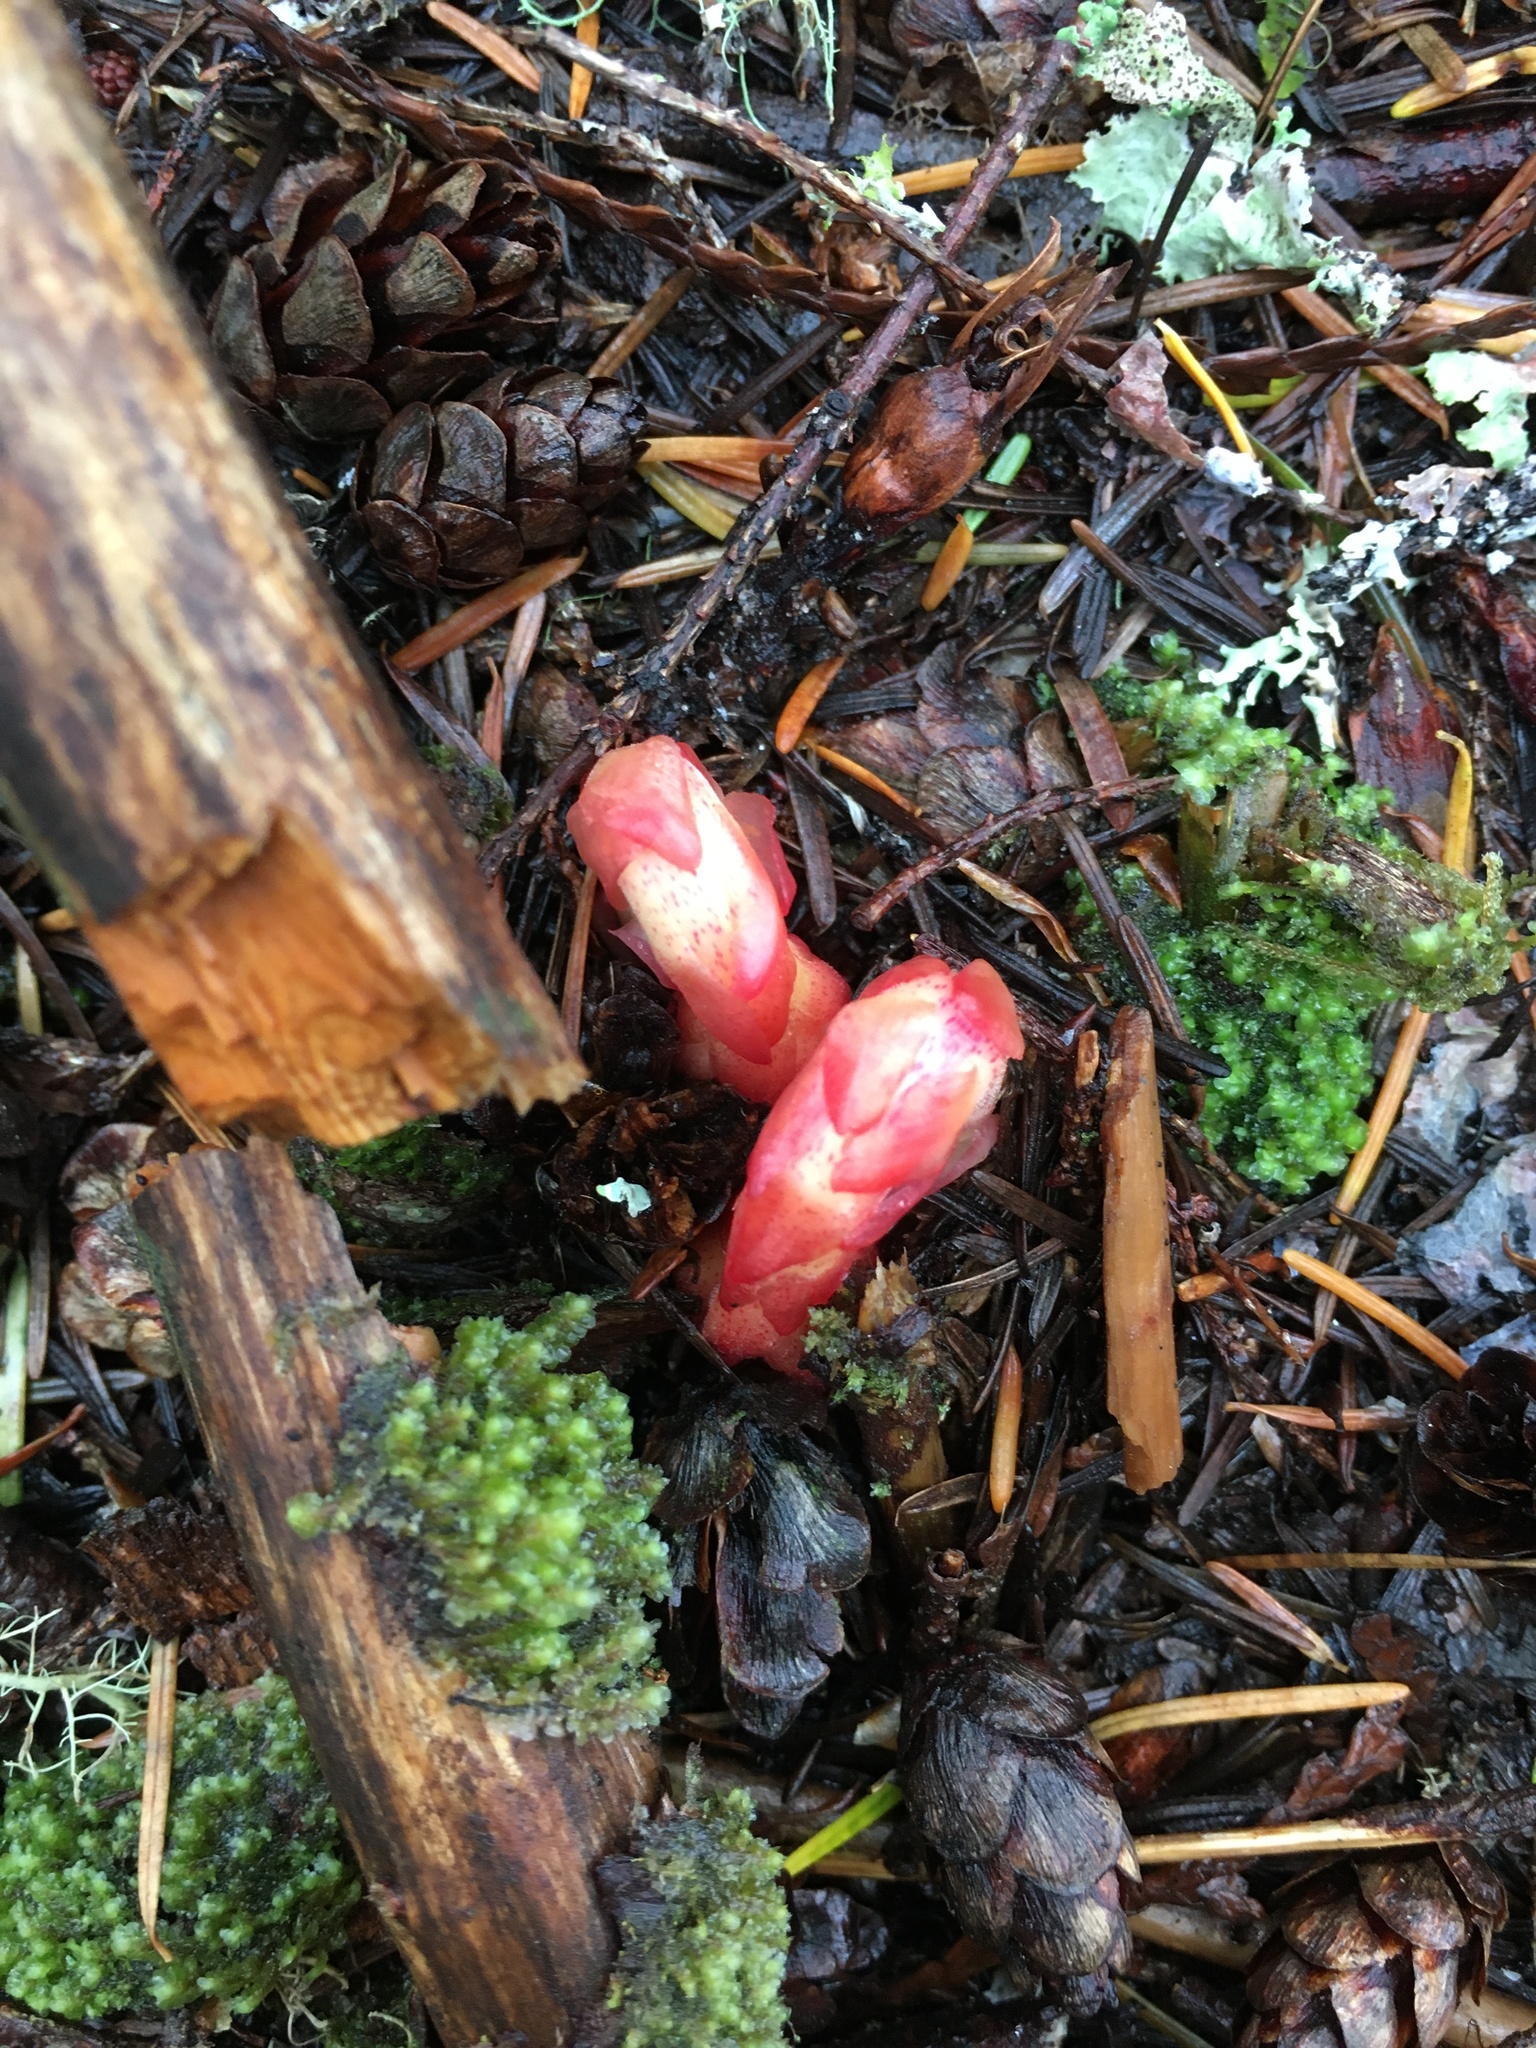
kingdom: Plantae
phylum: Tracheophyta
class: Magnoliopsida
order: Ericales
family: Ericaceae
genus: Hypopitys
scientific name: Hypopitys monotropa
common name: Yellow bird's-nest
